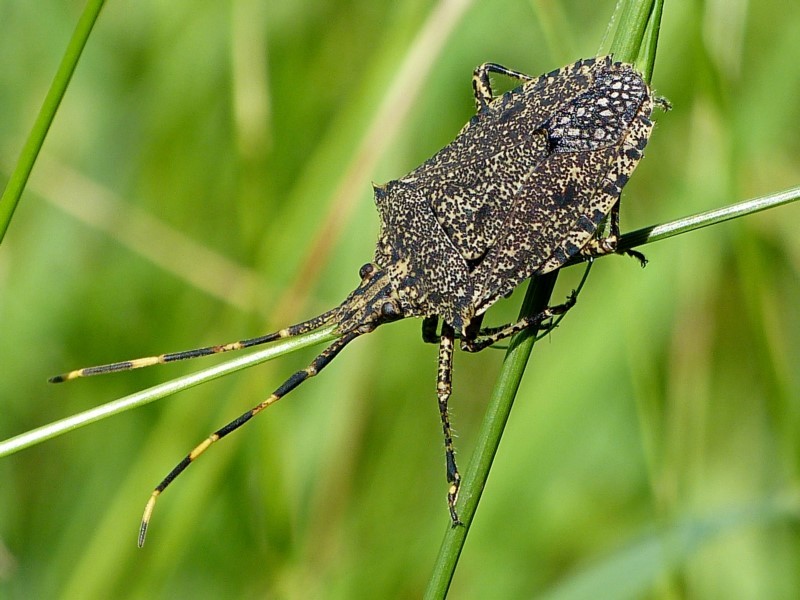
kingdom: Animalia
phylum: Arthropoda
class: Insecta
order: Hemiptera
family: Pentatomidae
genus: Alcaeus
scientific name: Alcaeus
